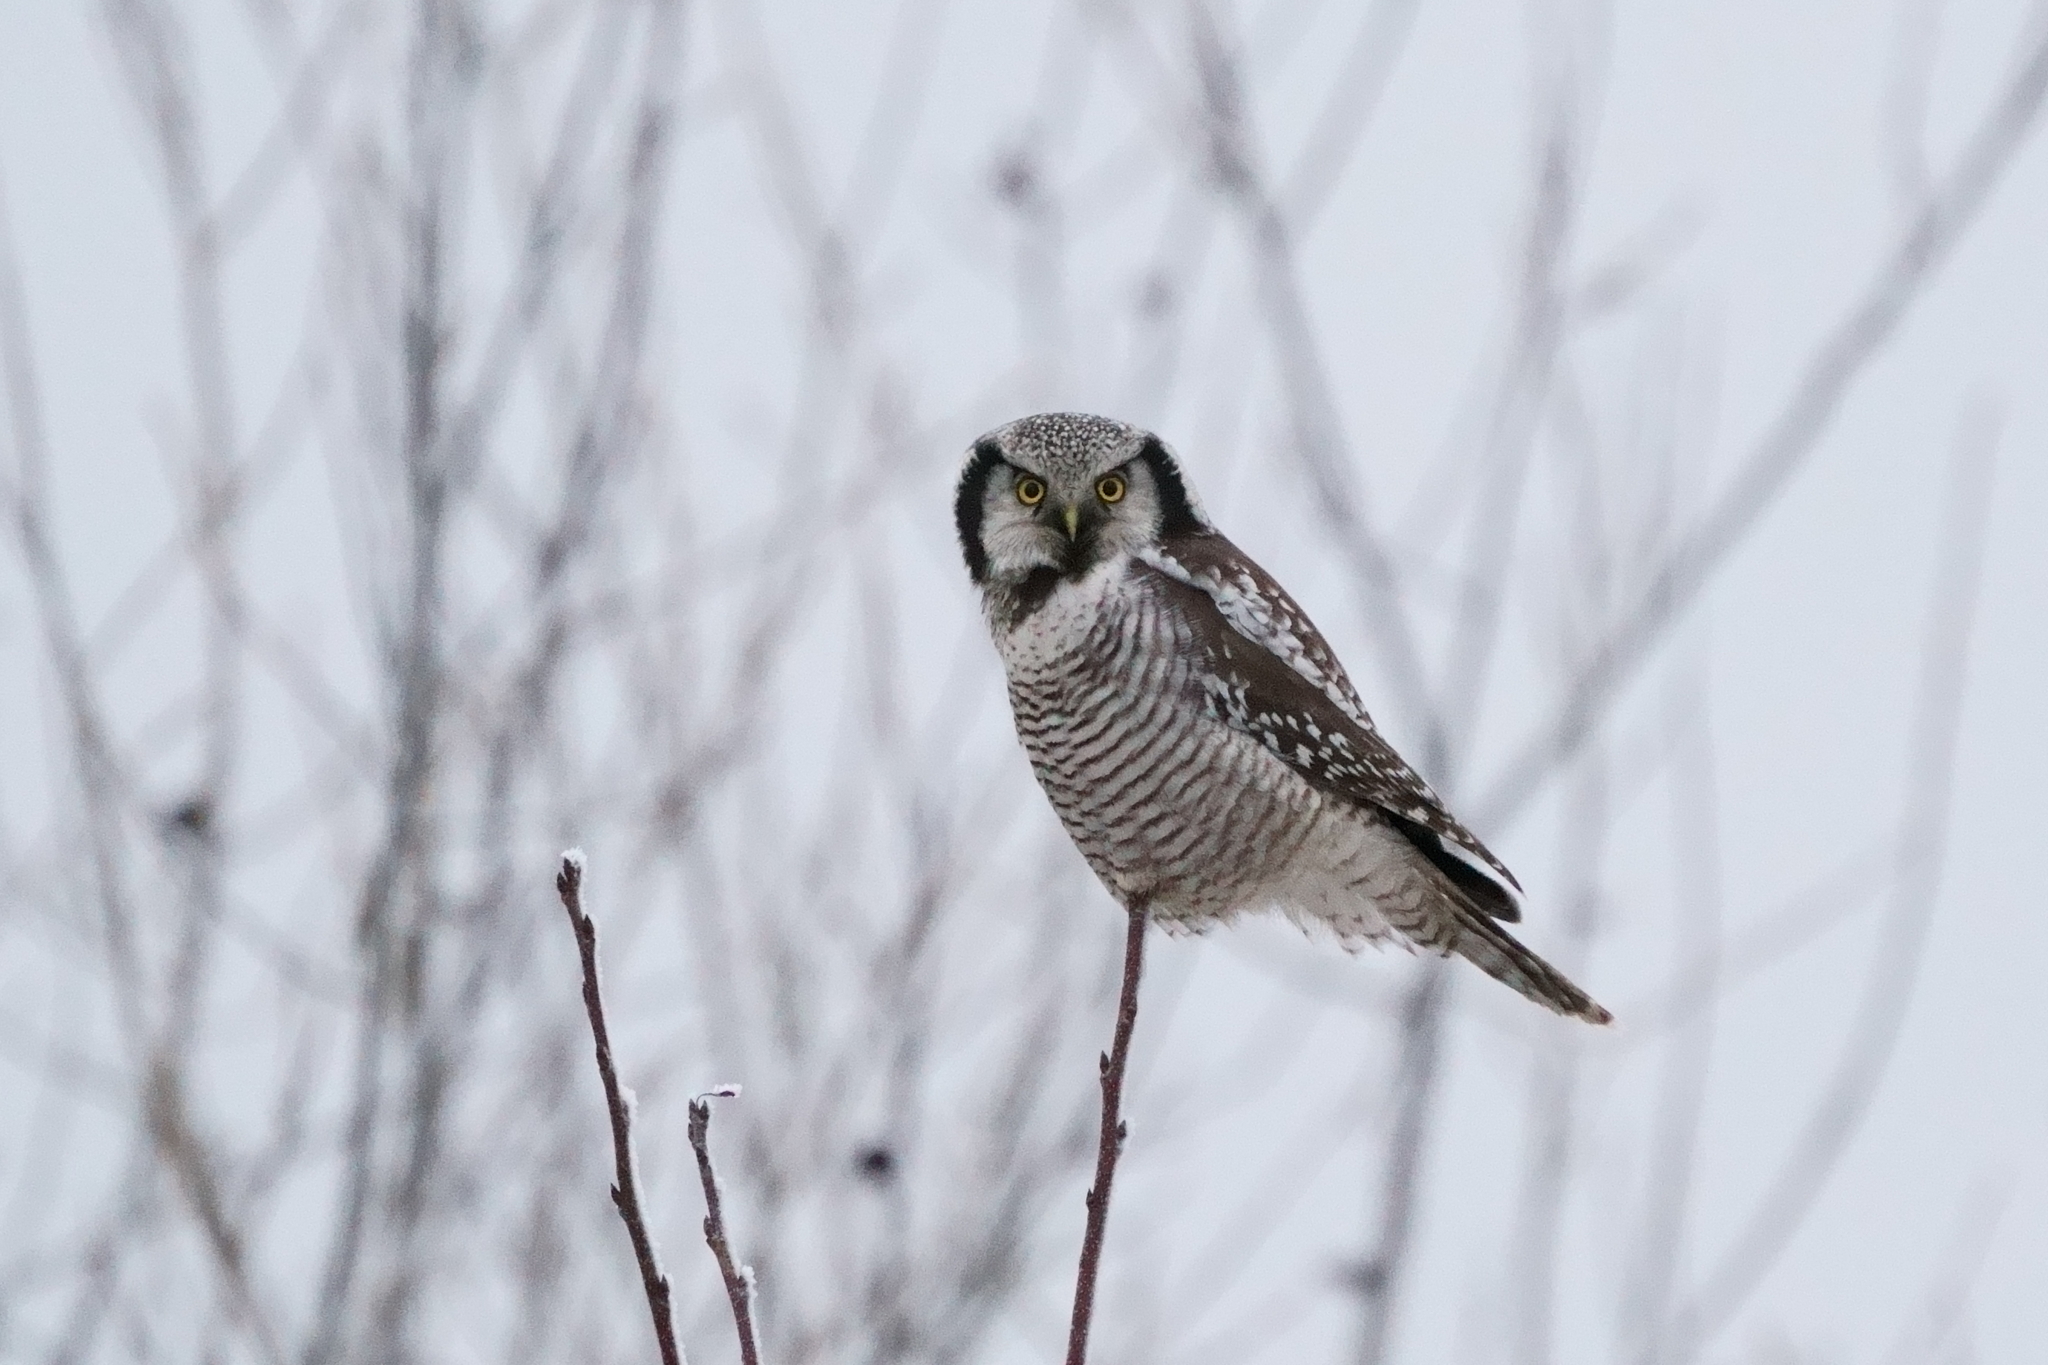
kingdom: Animalia
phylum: Chordata
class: Aves
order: Strigiformes
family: Strigidae
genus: Surnia
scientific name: Surnia ulula
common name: Northern hawk-owl
